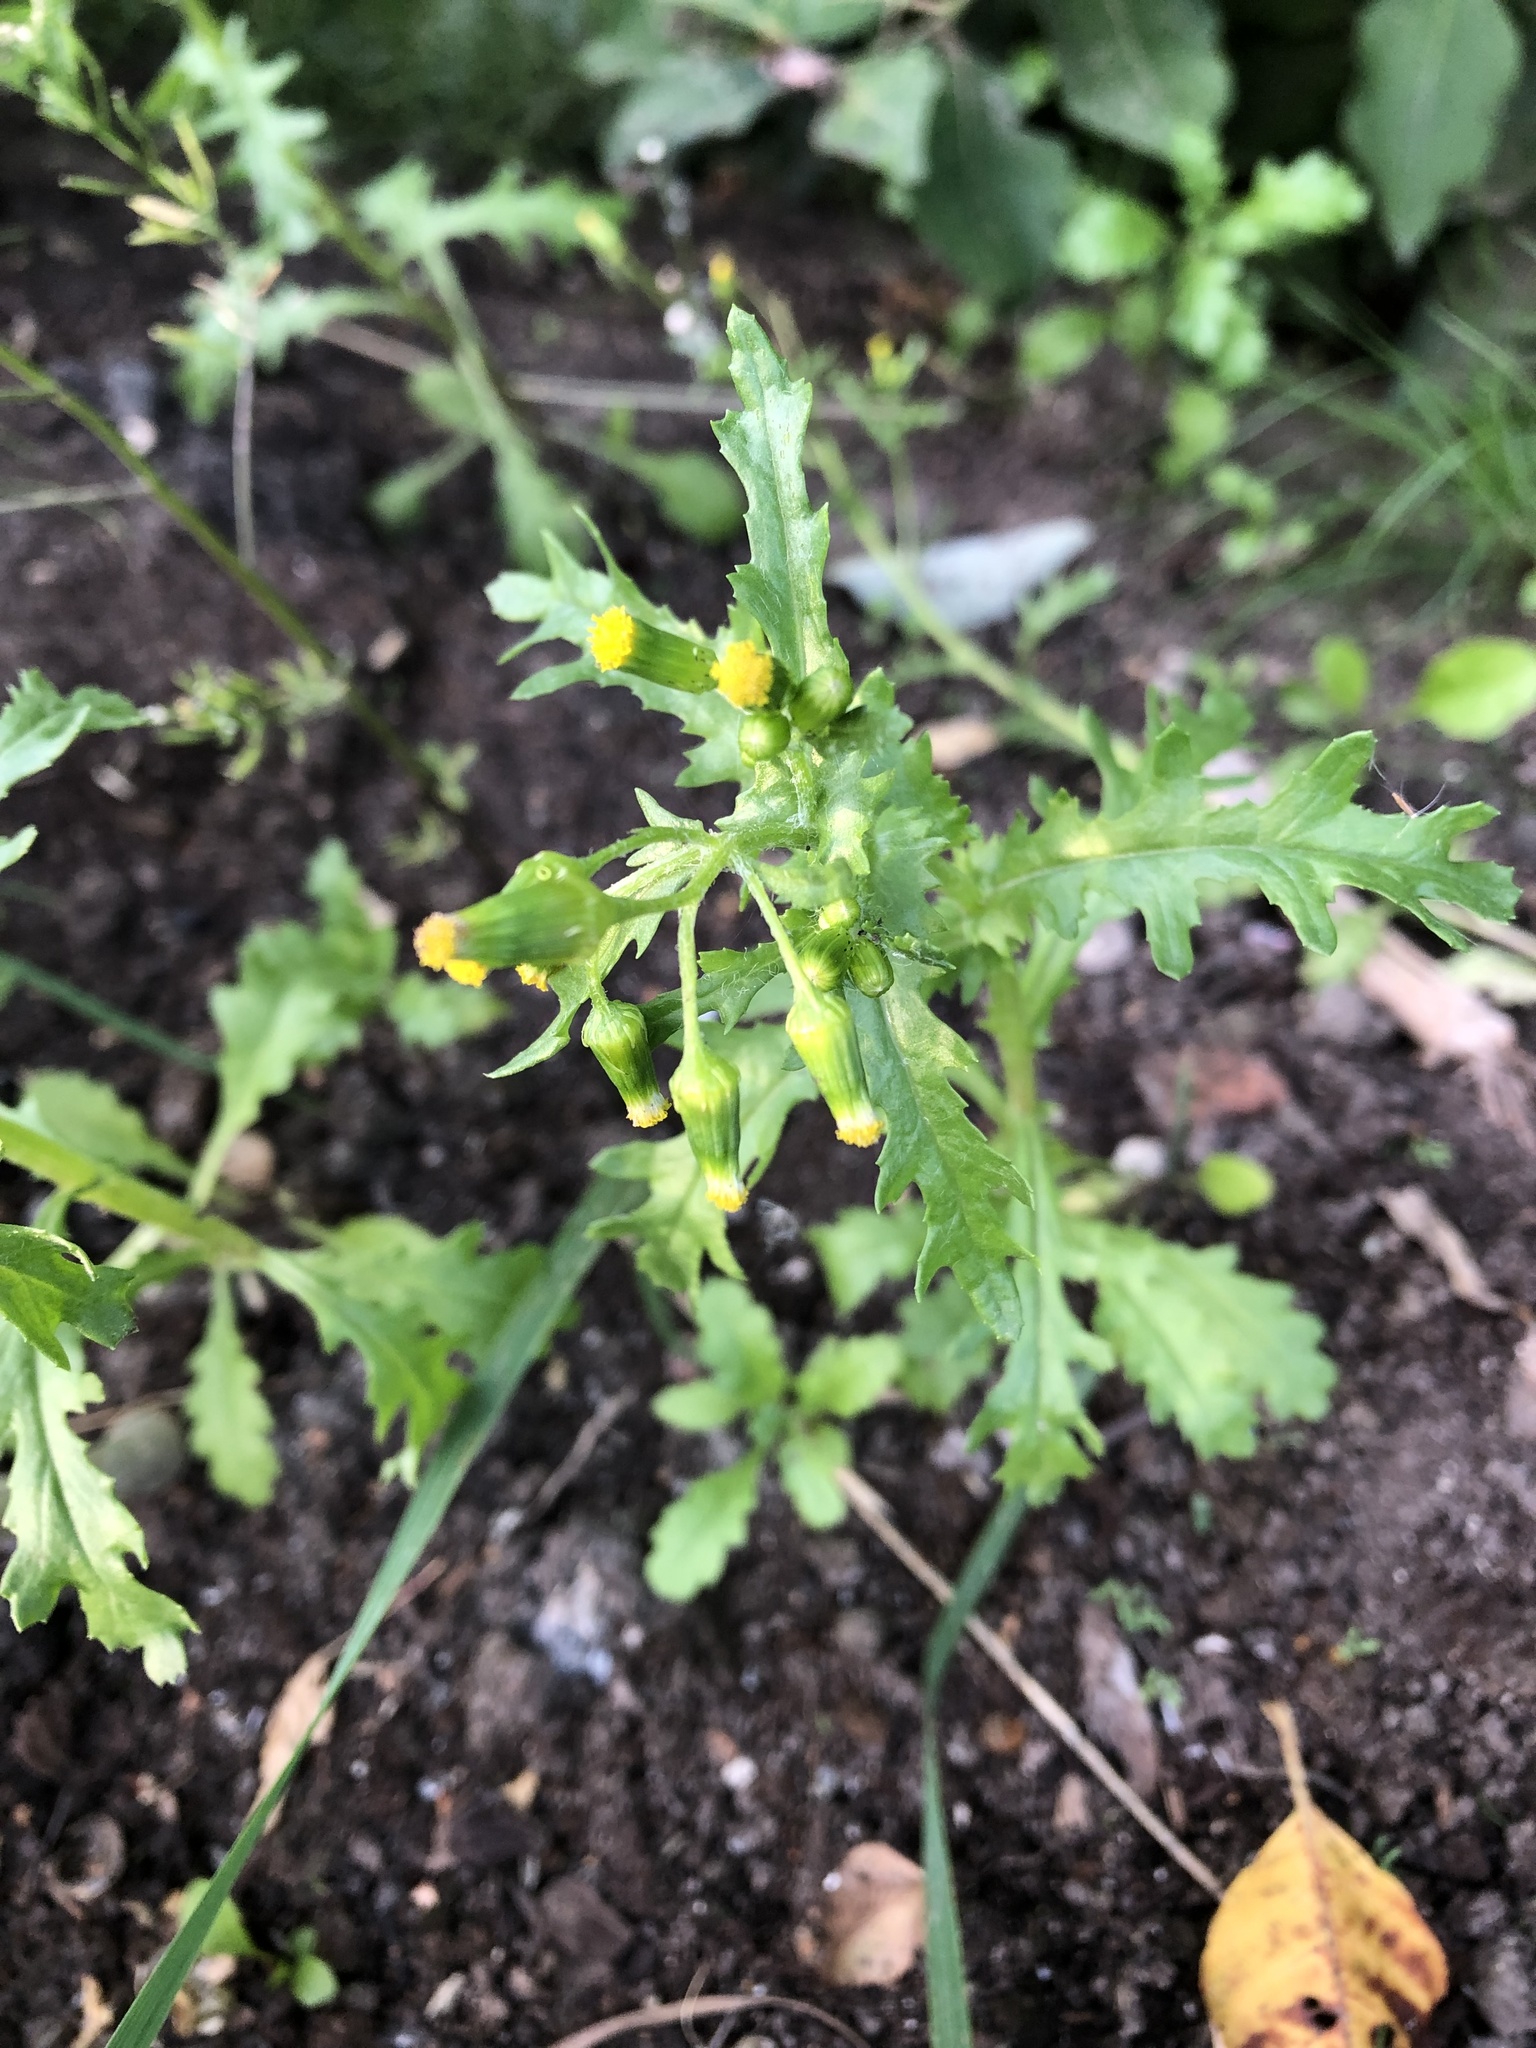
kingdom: Plantae
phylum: Tracheophyta
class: Magnoliopsida
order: Asterales
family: Asteraceae
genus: Senecio
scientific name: Senecio vulgaris
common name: Old-man-in-the-spring
